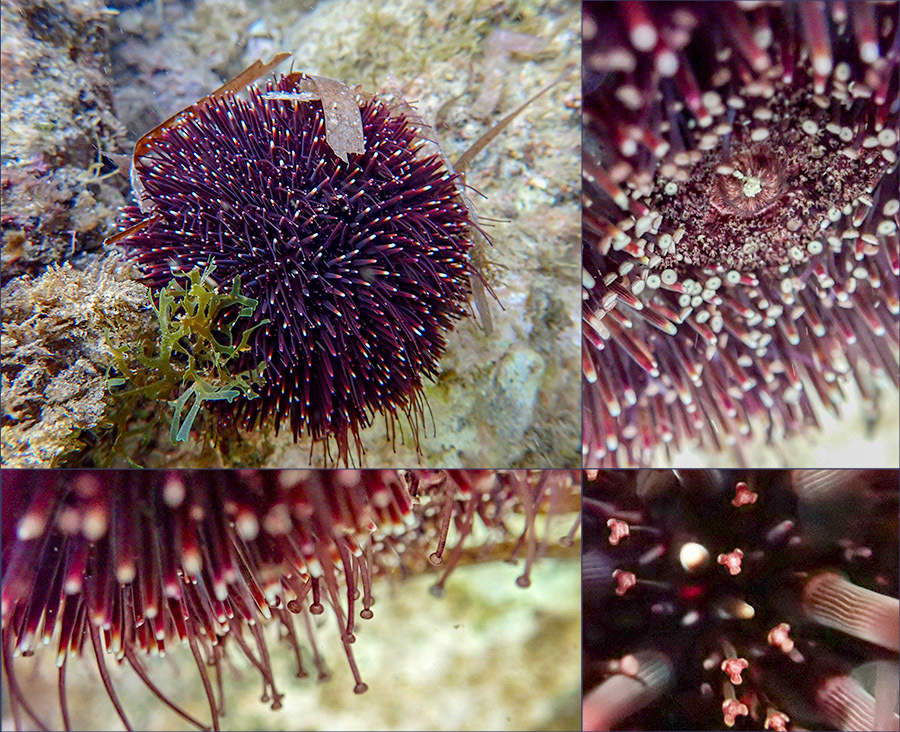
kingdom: Animalia
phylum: Echinodermata
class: Echinoidea
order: Camarodonta
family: Toxopneustidae
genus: Sphaerechinus
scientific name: Sphaerechinus granularis
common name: Violet sea urchin
